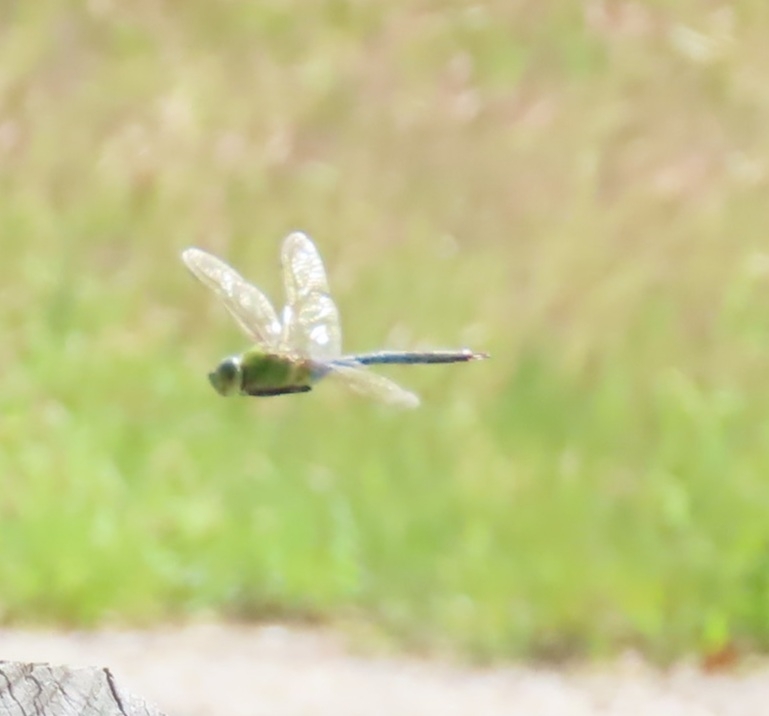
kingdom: Animalia
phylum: Arthropoda
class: Insecta
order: Odonata
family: Aeshnidae
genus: Anax
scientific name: Anax junius
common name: Common green darner
